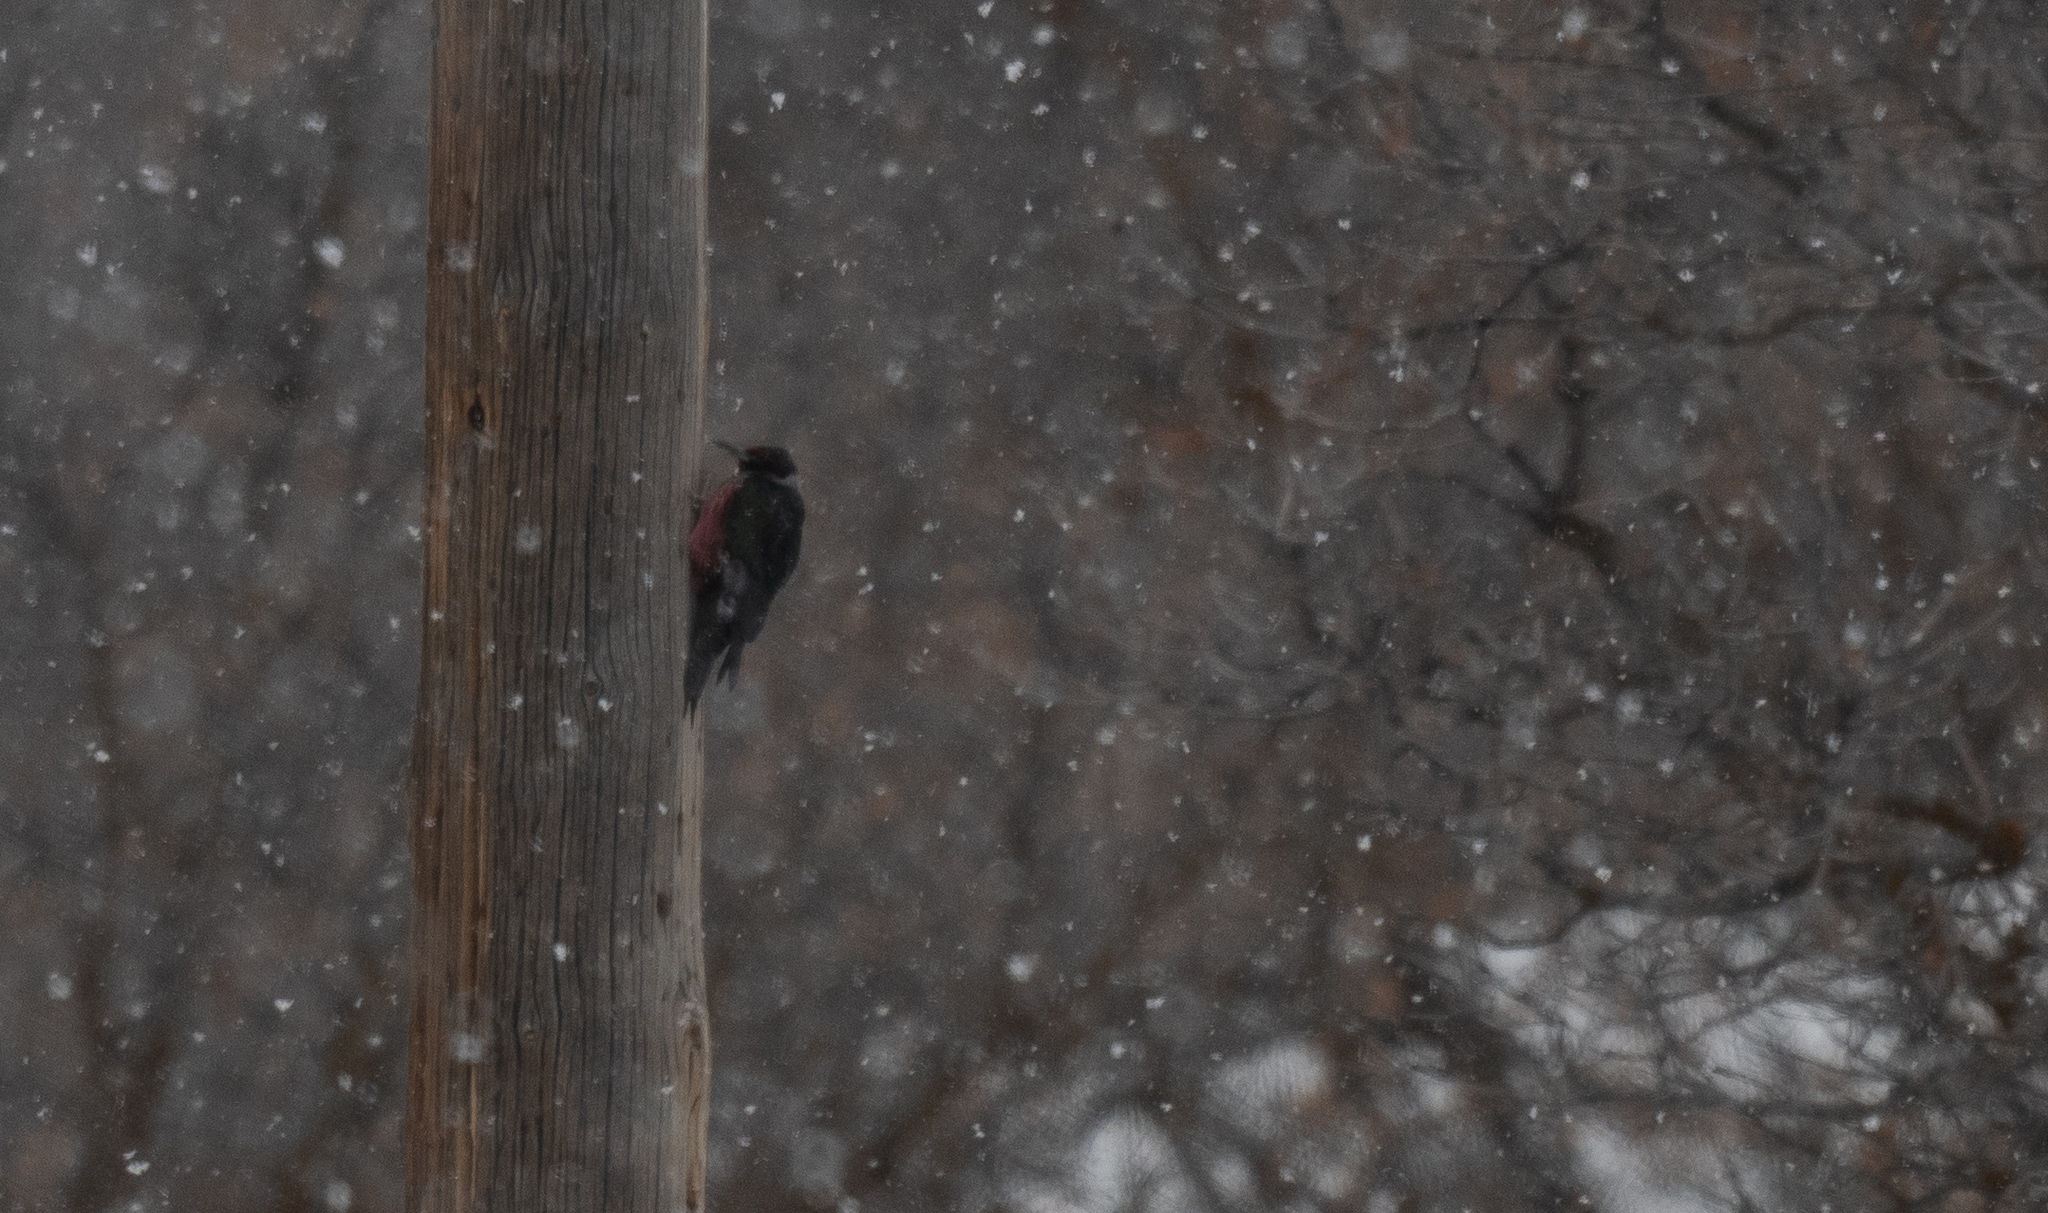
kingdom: Animalia
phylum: Chordata
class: Aves
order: Piciformes
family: Picidae
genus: Melanerpes
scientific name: Melanerpes lewis
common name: Lewis's woodpecker
